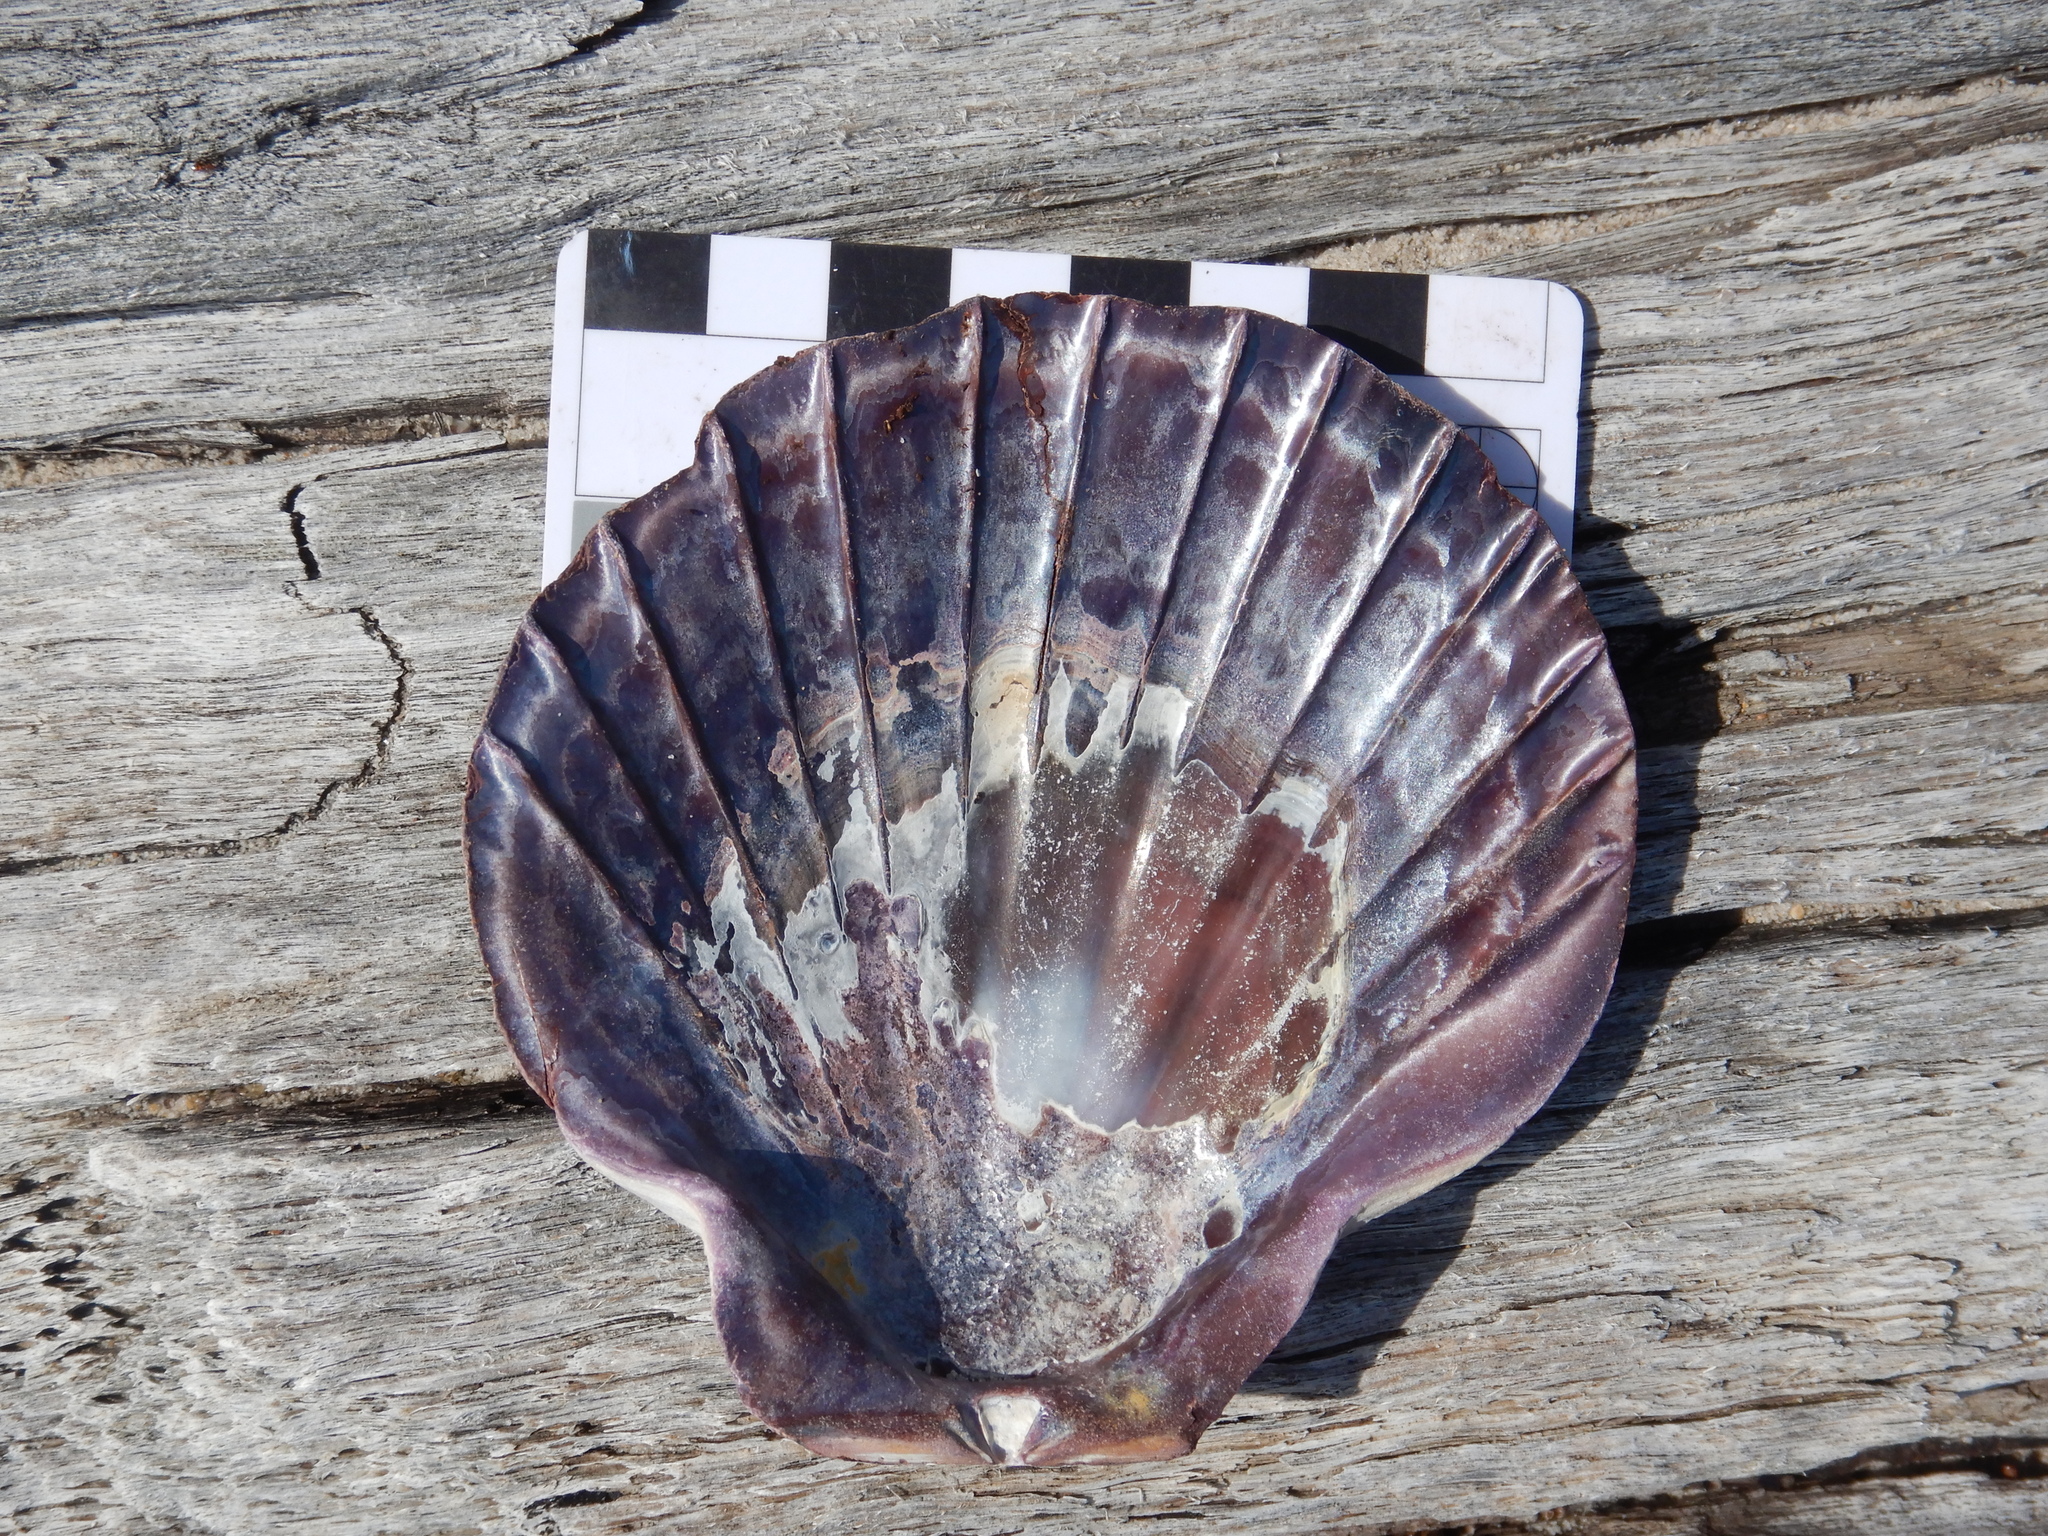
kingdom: Animalia
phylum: Mollusca
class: Bivalvia
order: Pectinida
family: Pectinidae
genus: Equichlamys
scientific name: Equichlamys bifrons
